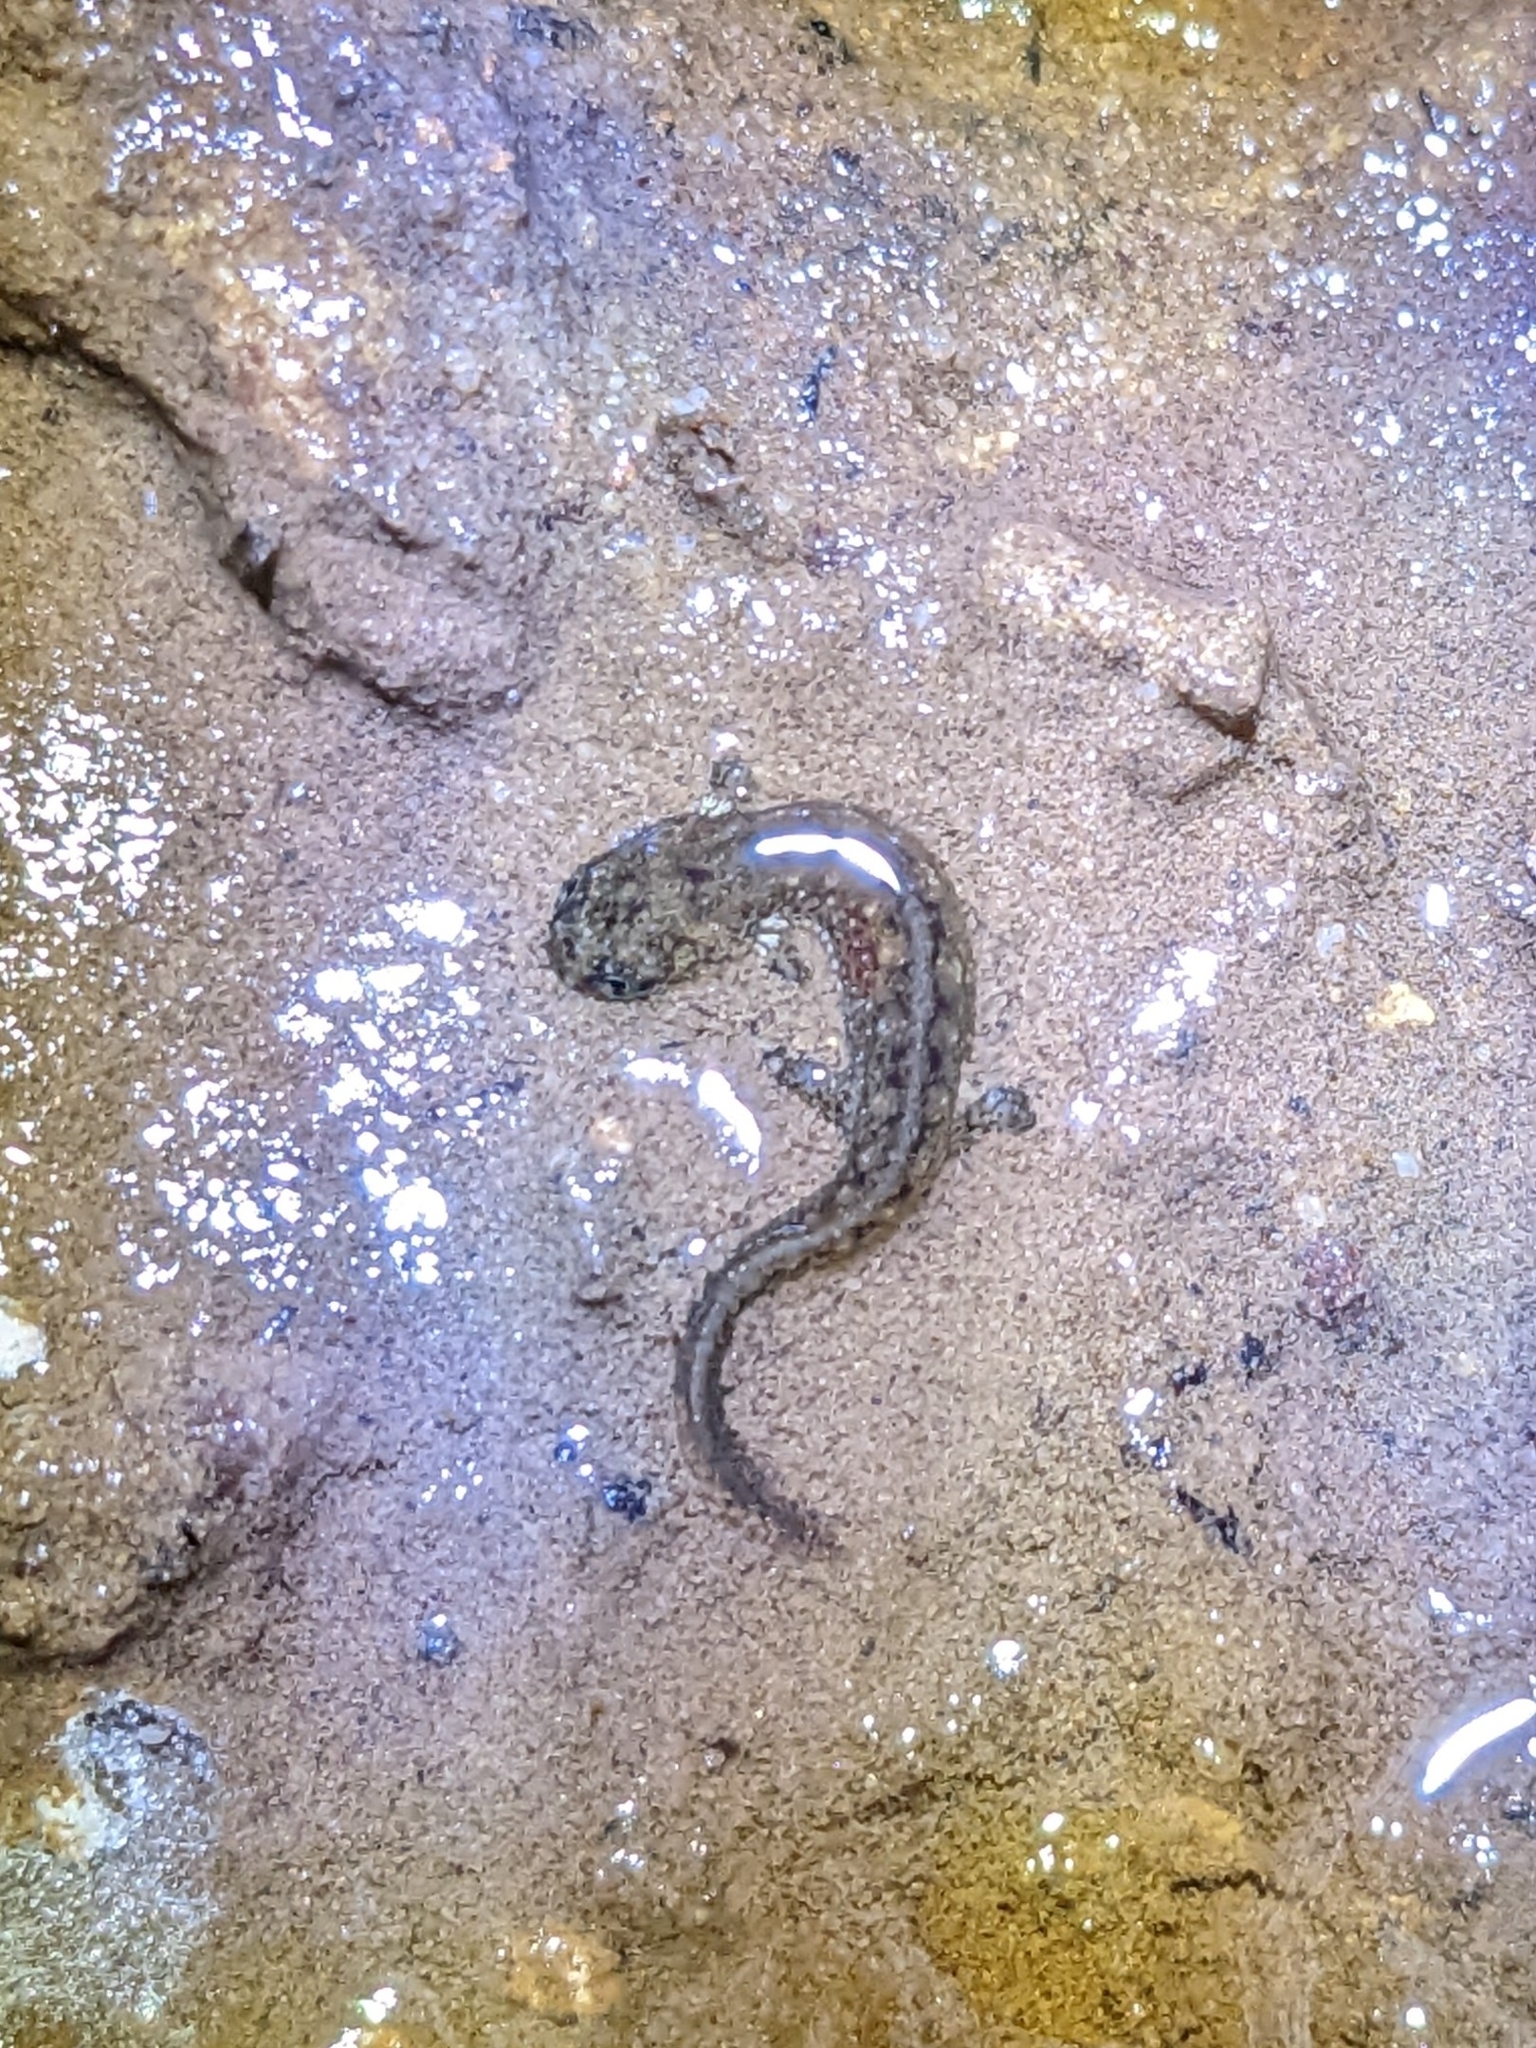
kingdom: Animalia
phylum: Chordata
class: Amphibia
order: Caudata
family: Plethodontidae
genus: Desmognathus
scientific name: Desmognathus fuscus
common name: Northern dusky salamander
